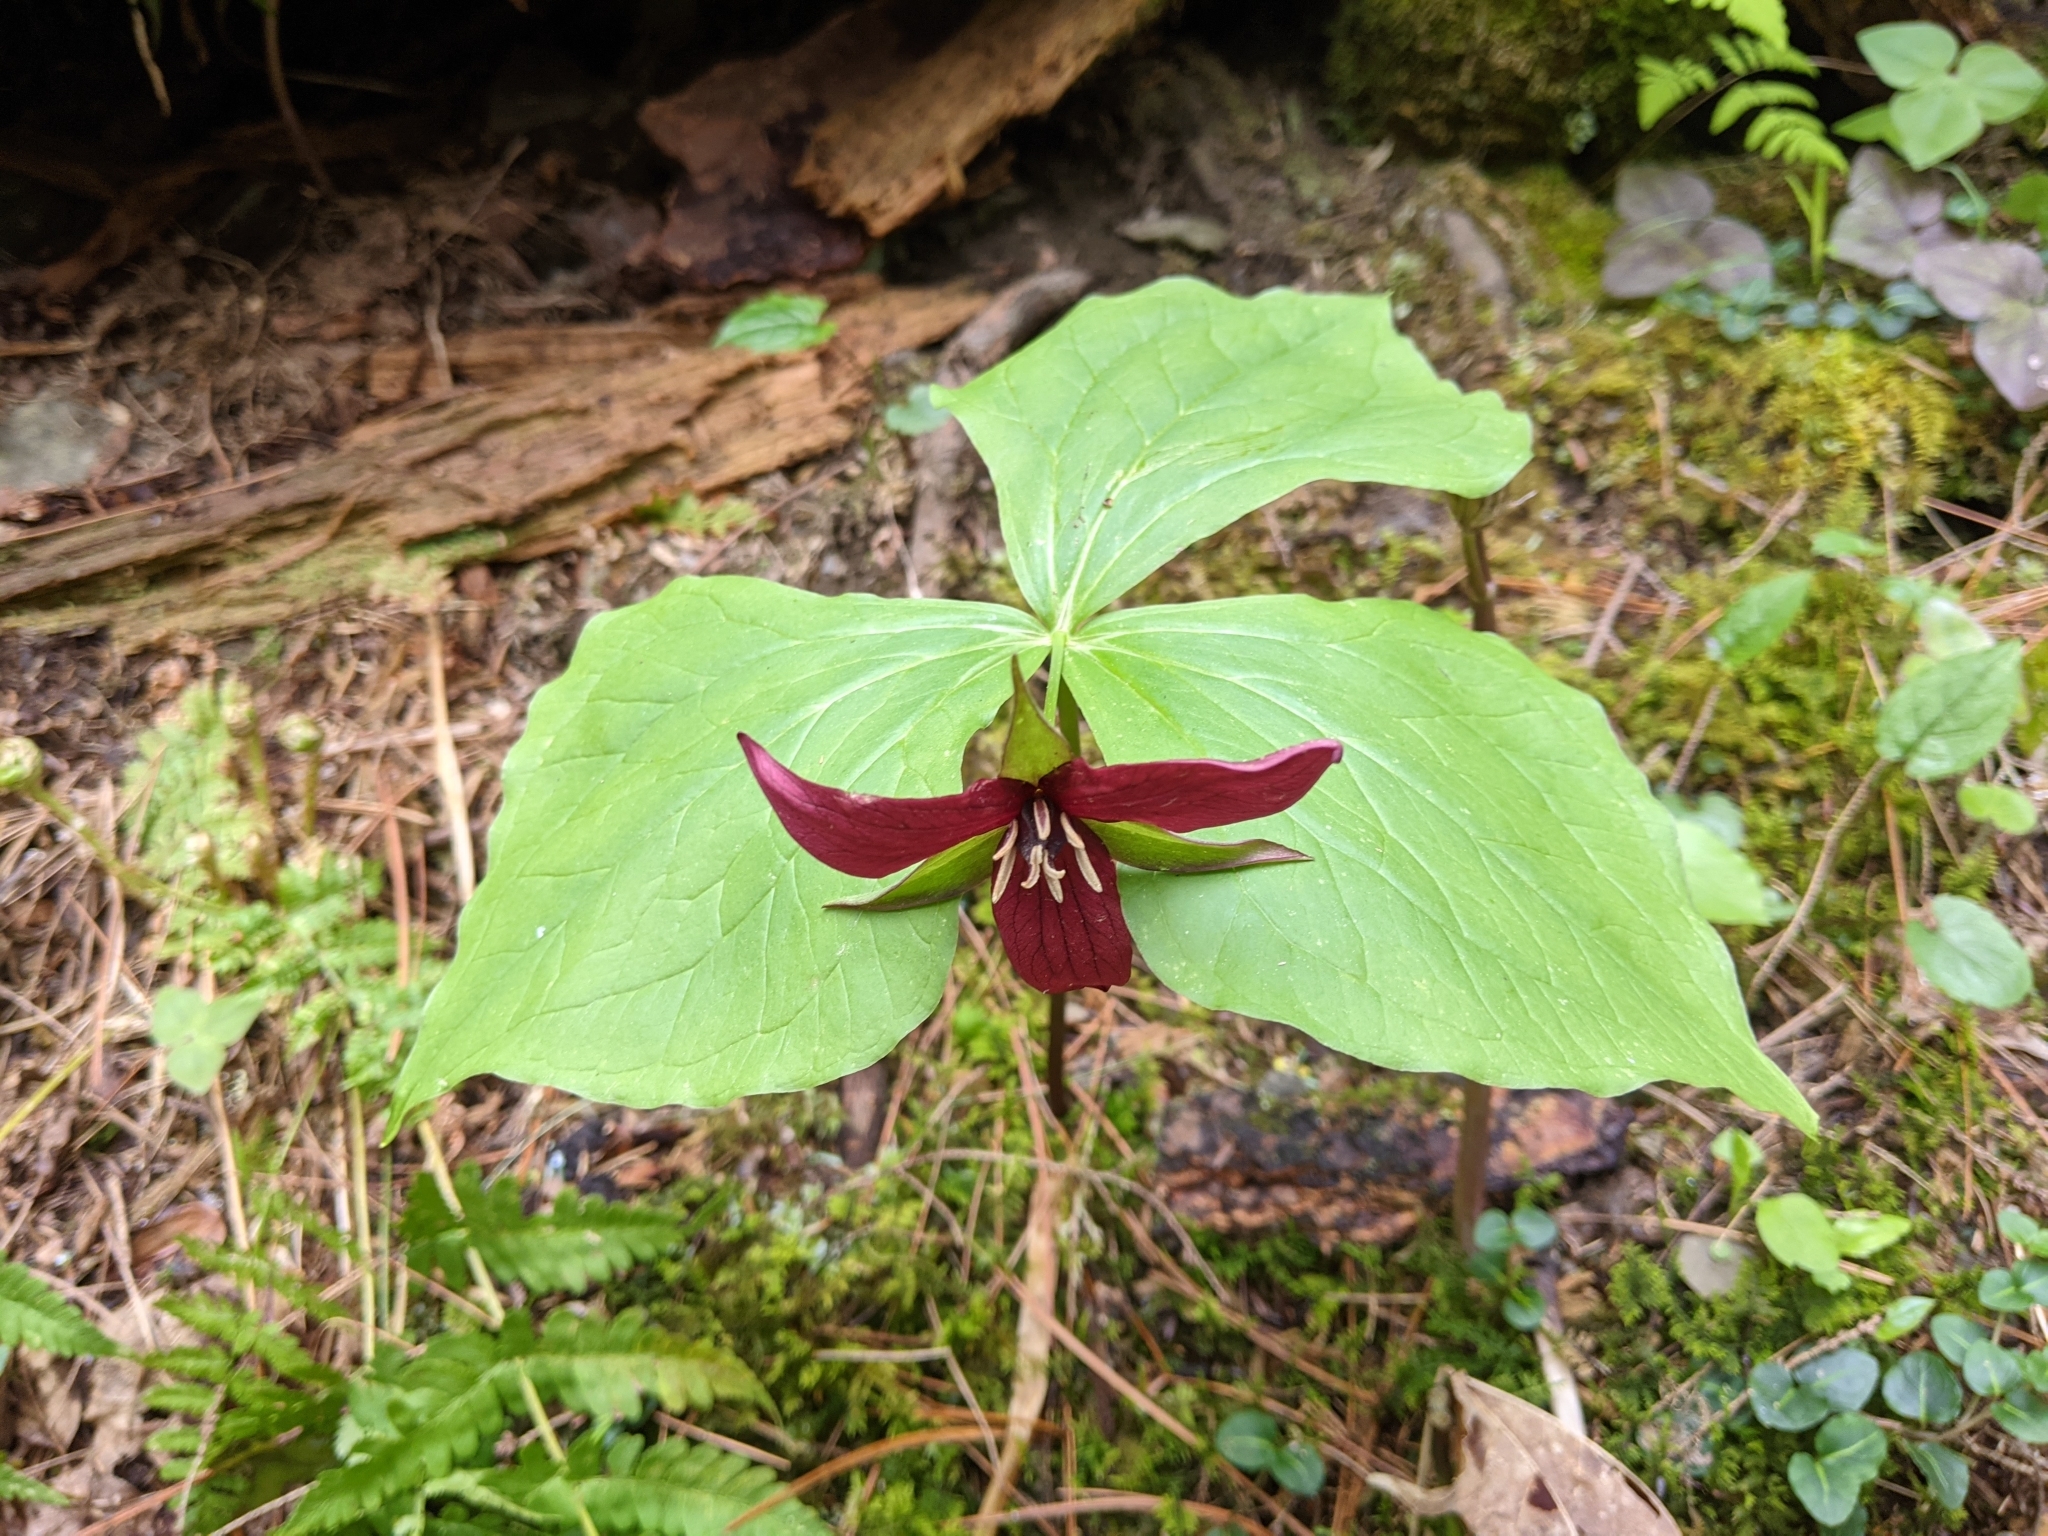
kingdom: Plantae
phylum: Tracheophyta
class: Liliopsida
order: Liliales
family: Melanthiaceae
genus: Trillium
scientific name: Trillium erectum
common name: Purple trillium
